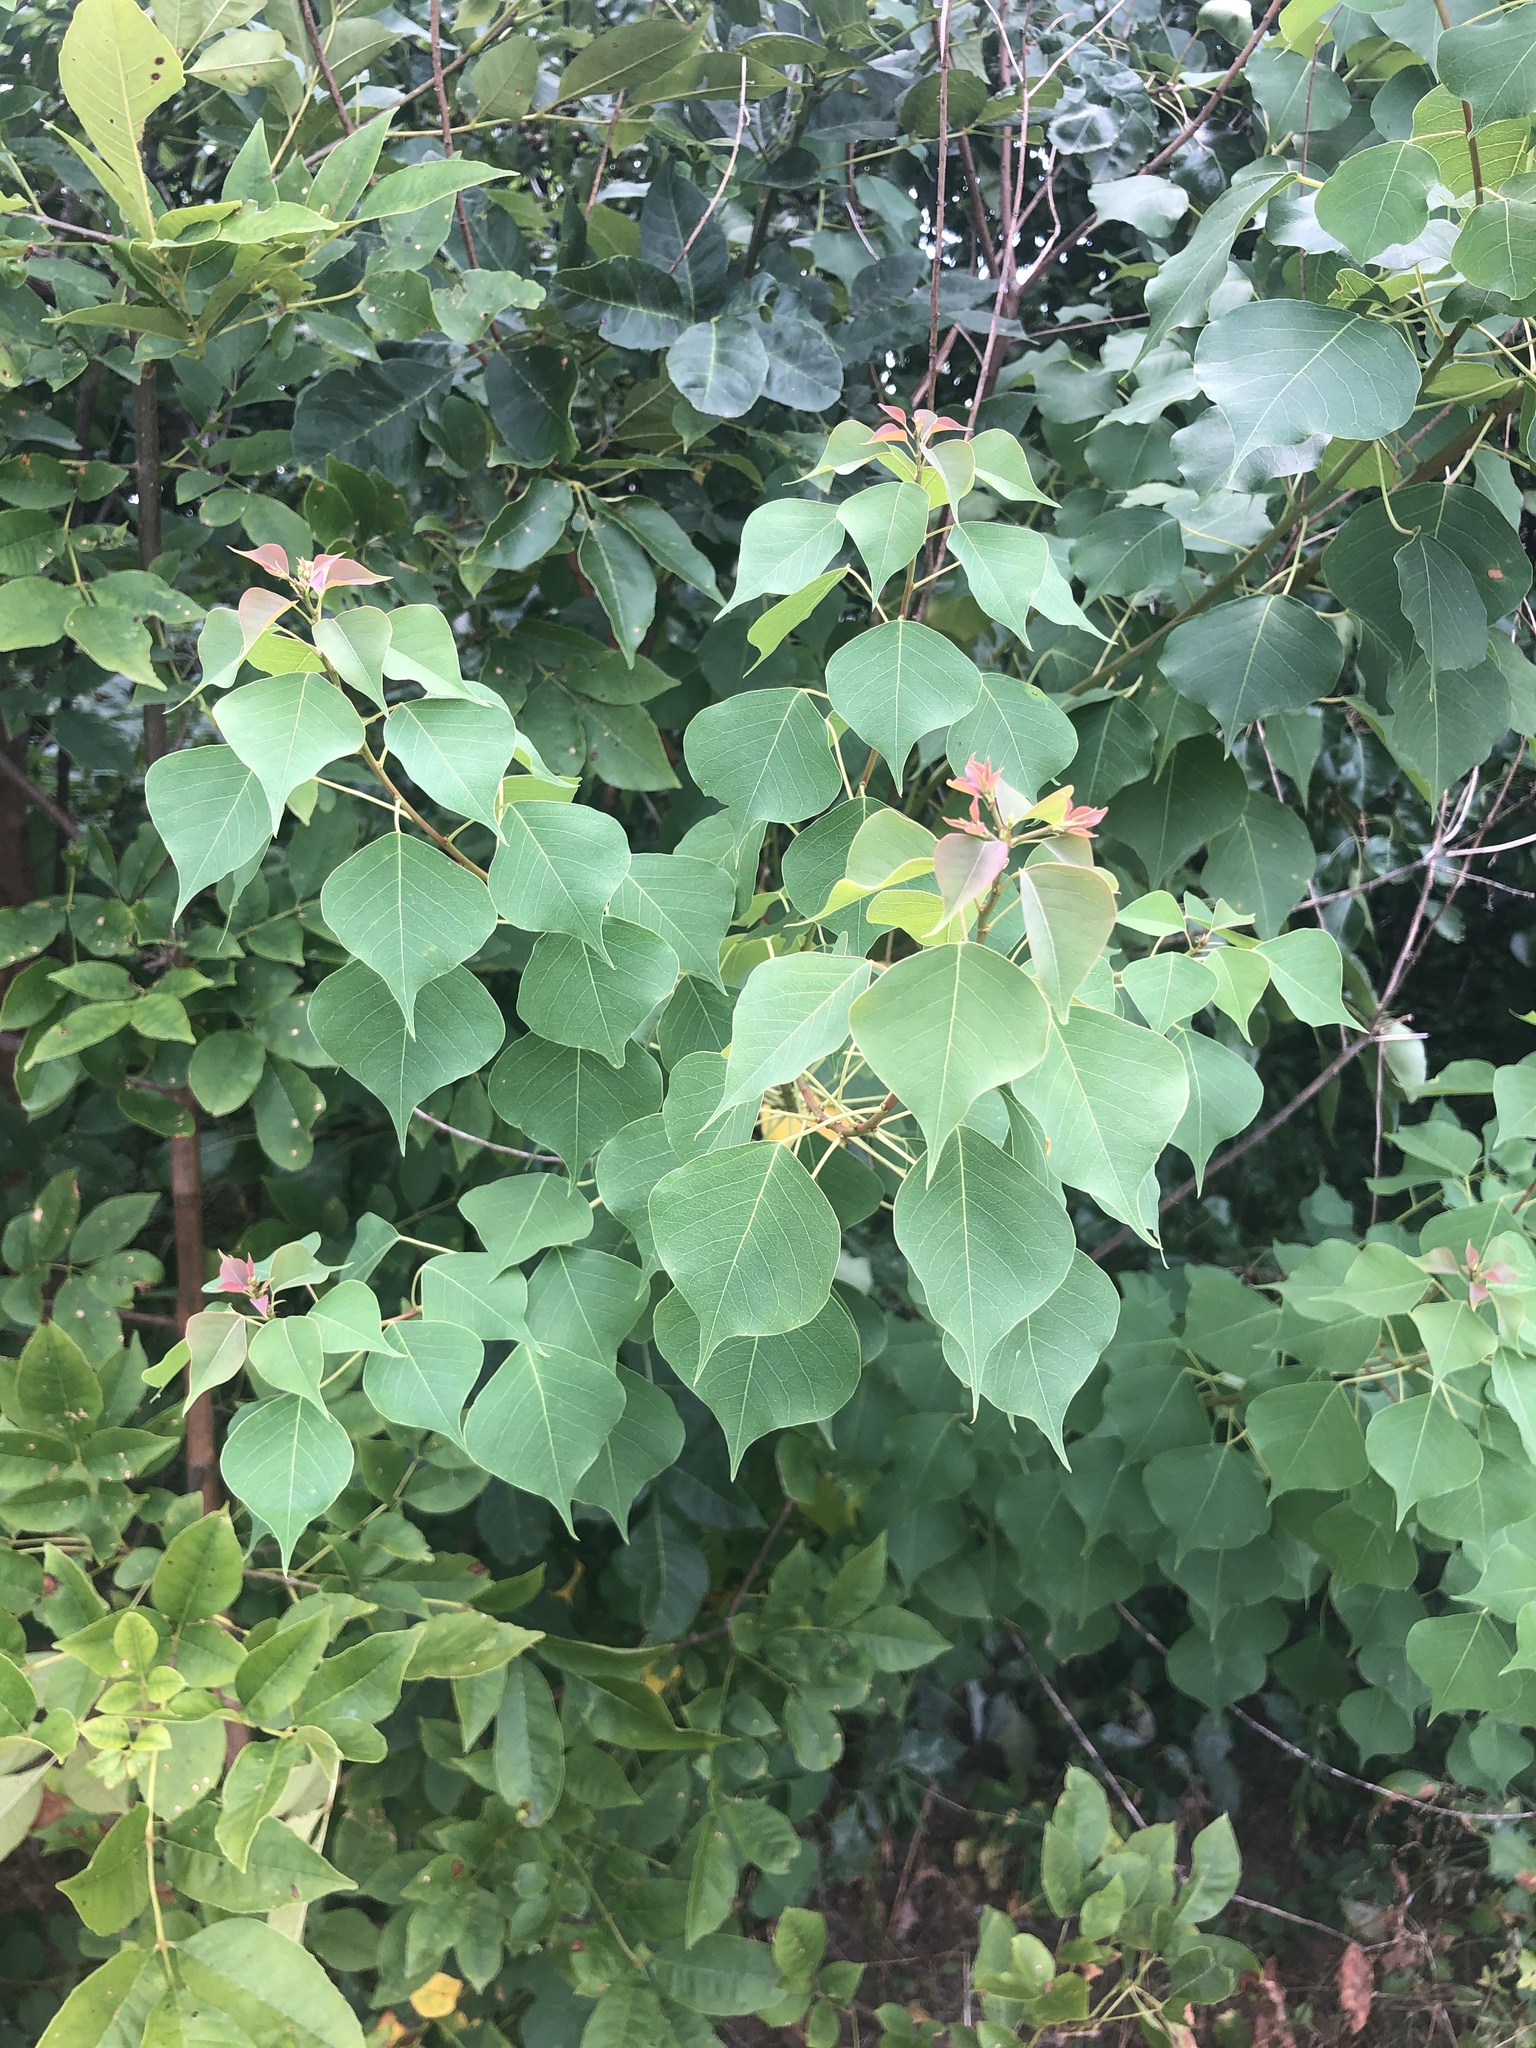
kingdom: Plantae
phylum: Tracheophyta
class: Magnoliopsida
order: Malpighiales
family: Euphorbiaceae
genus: Triadica
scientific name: Triadica sebifera
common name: Chinese tallow
